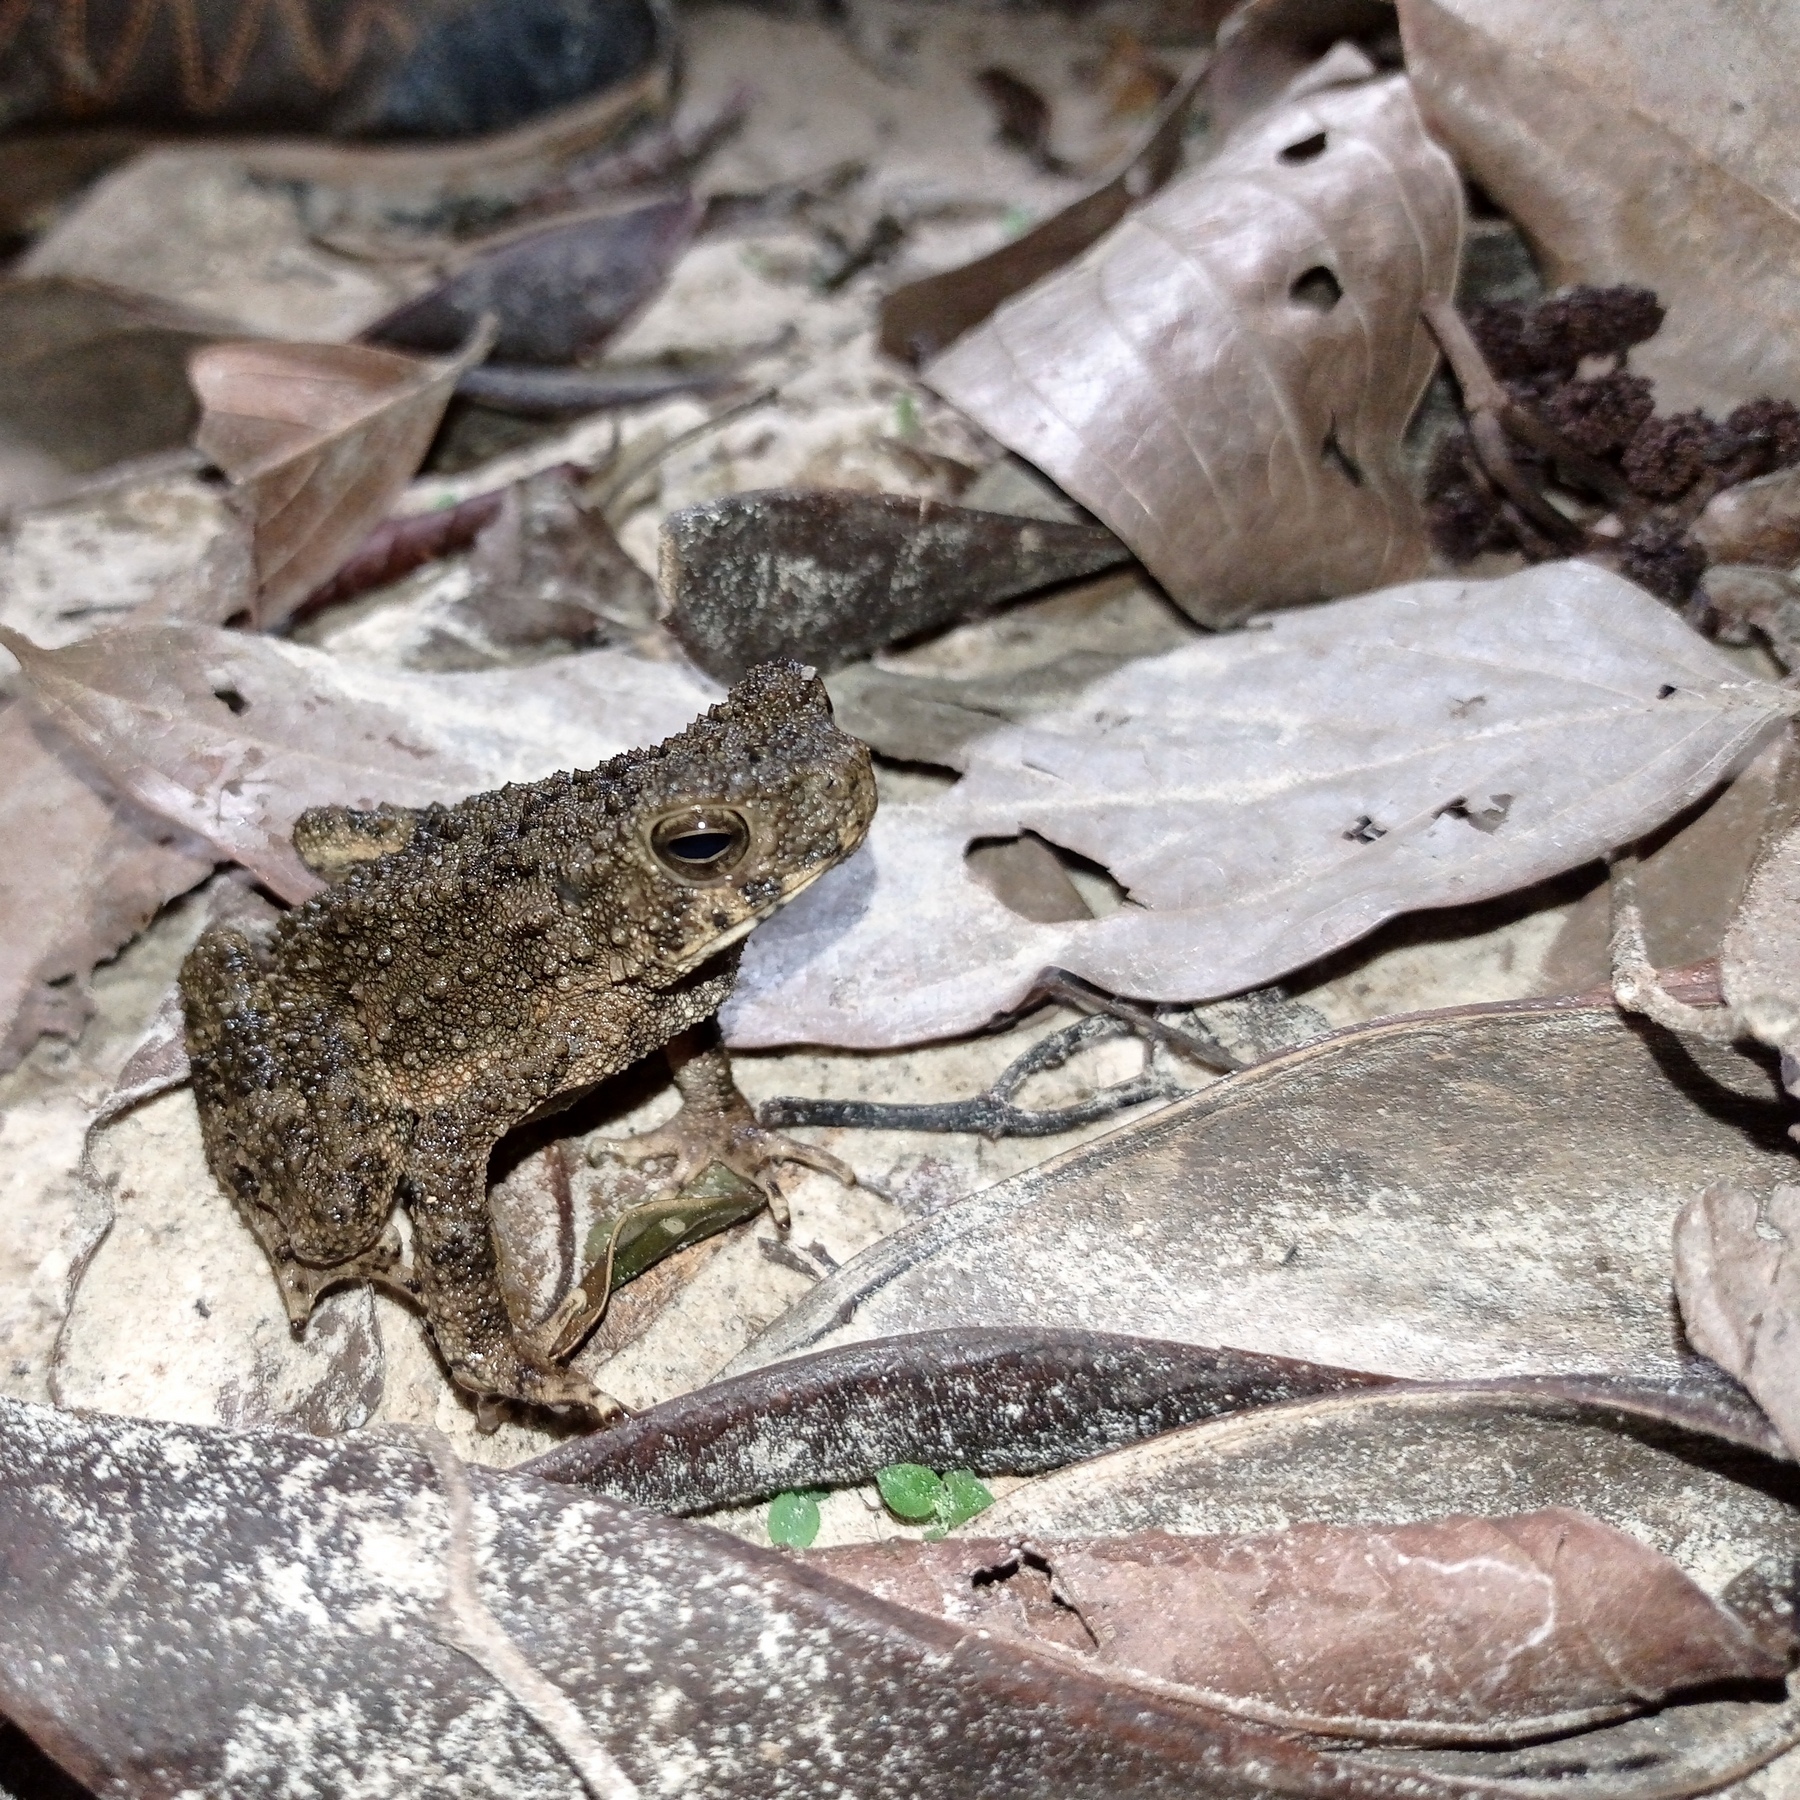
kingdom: Animalia
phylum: Chordata
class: Amphibia
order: Anura
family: Bufonidae
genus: Phrynoidis
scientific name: Phrynoidis asper
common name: Asian giant toad
